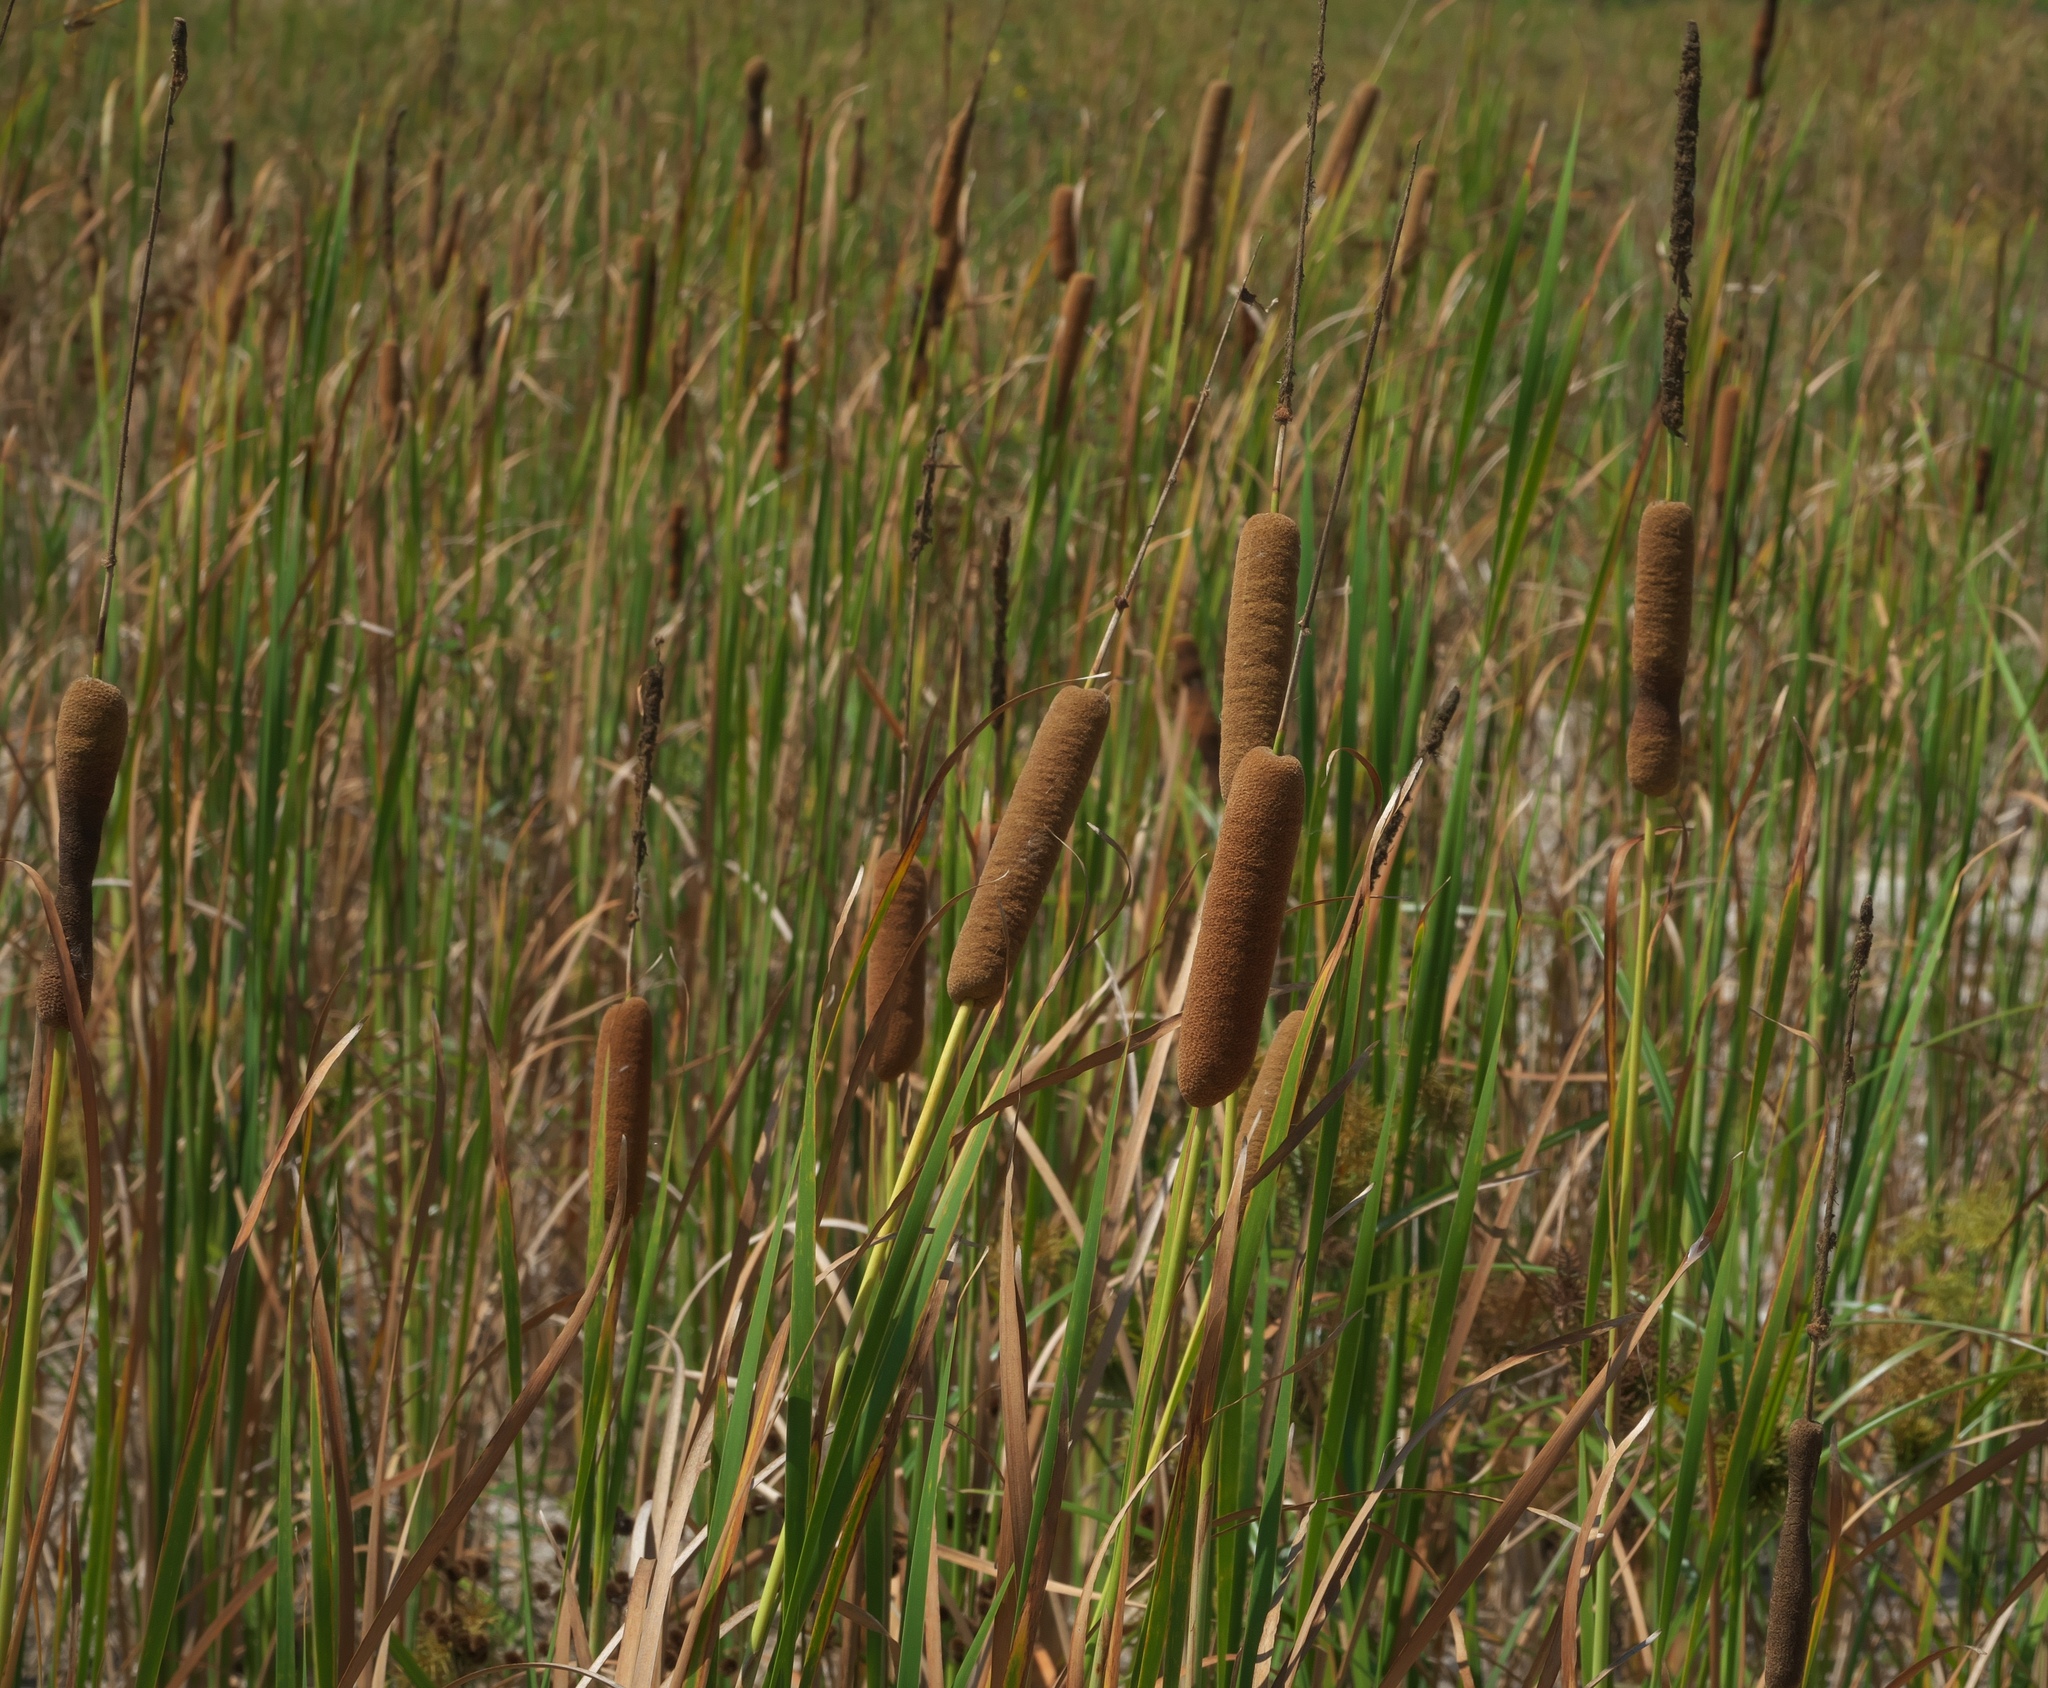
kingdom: Plantae
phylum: Tracheophyta
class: Liliopsida
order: Poales
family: Typhaceae
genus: Typha
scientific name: Typha domingensis
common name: Southern cattail
